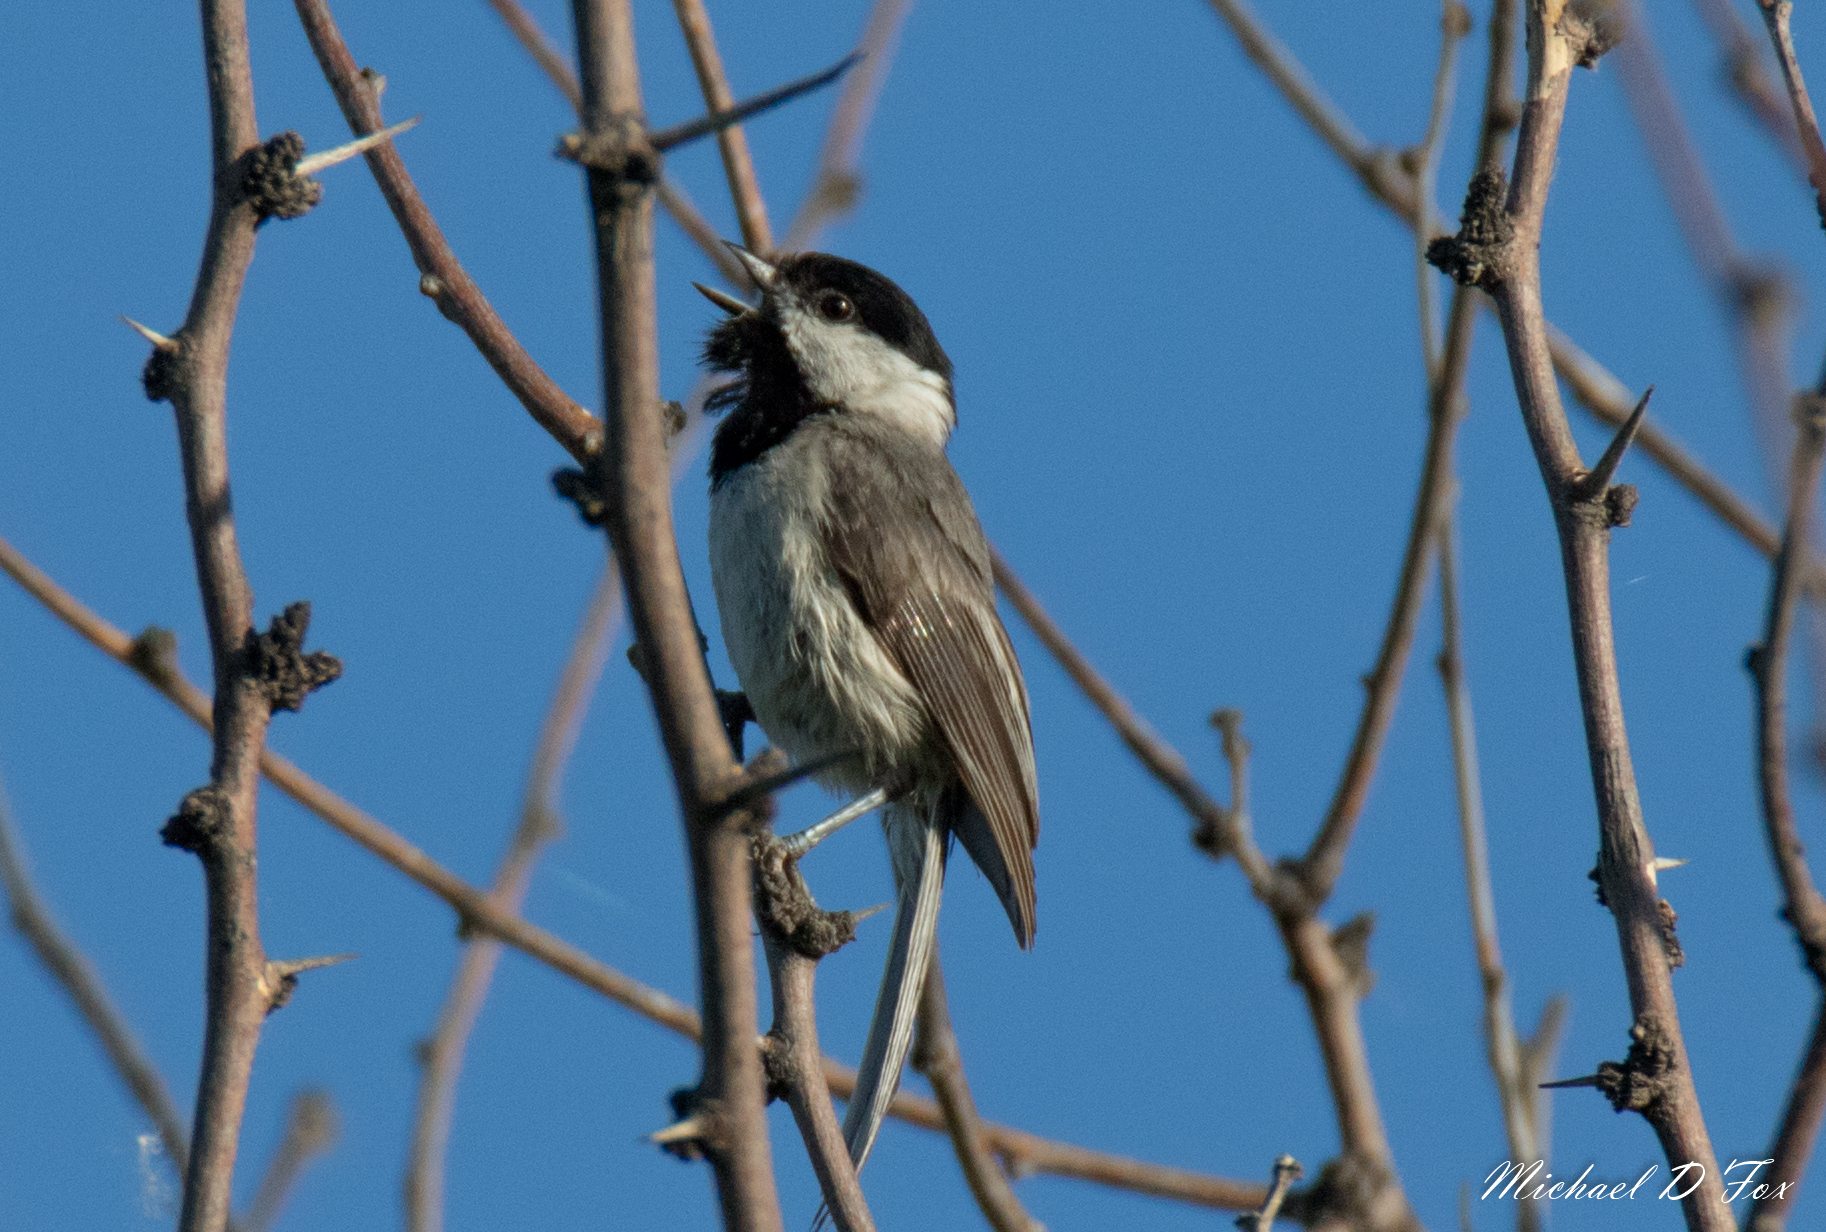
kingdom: Animalia
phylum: Chordata
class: Aves
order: Passeriformes
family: Paridae
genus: Poecile
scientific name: Poecile carolinensis
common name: Carolina chickadee
